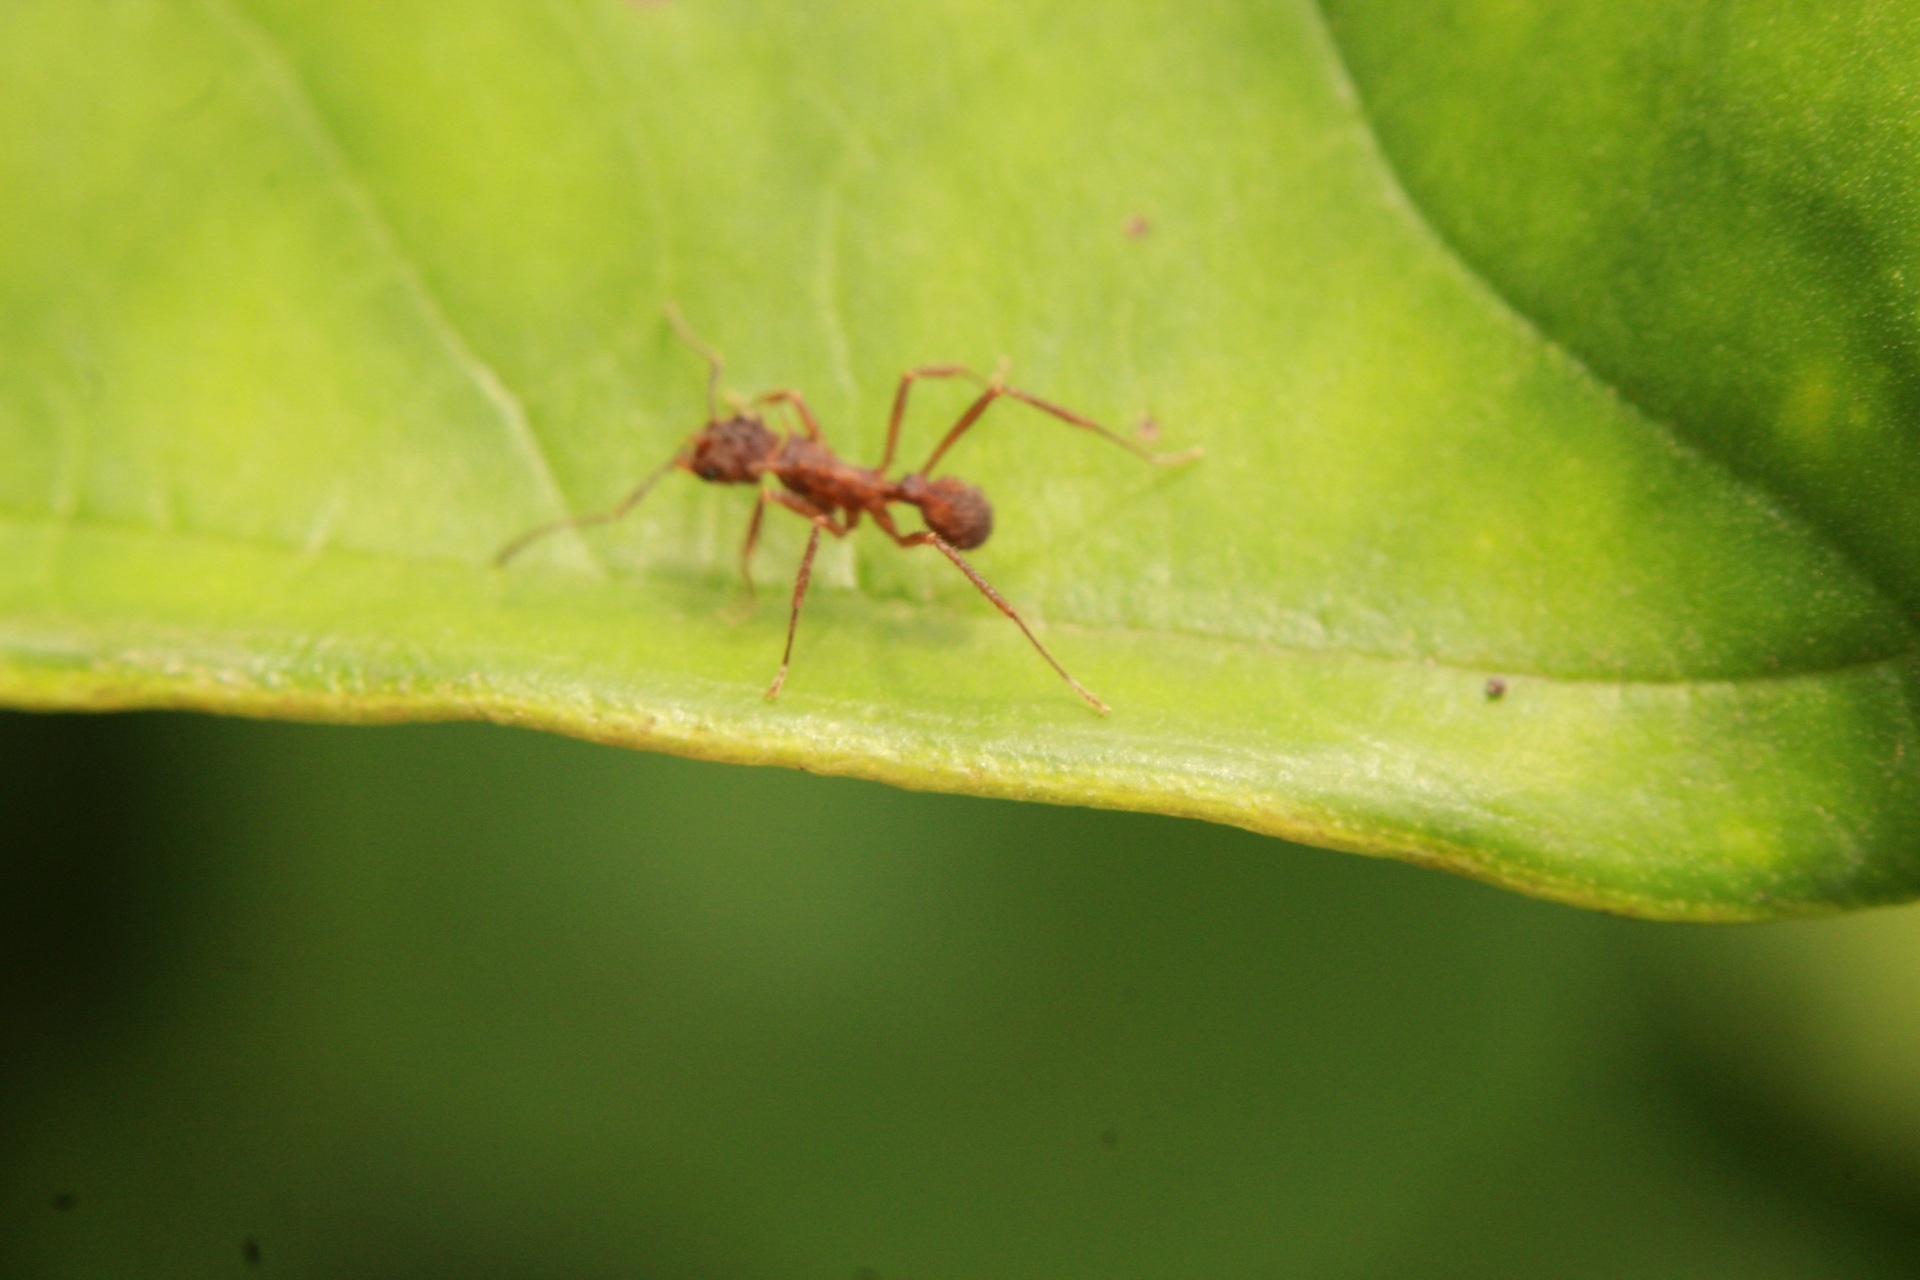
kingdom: Animalia
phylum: Arthropoda
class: Insecta
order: Hymenoptera
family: Formicidae
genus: Acromyrmex
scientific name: Acromyrmex coronatus
